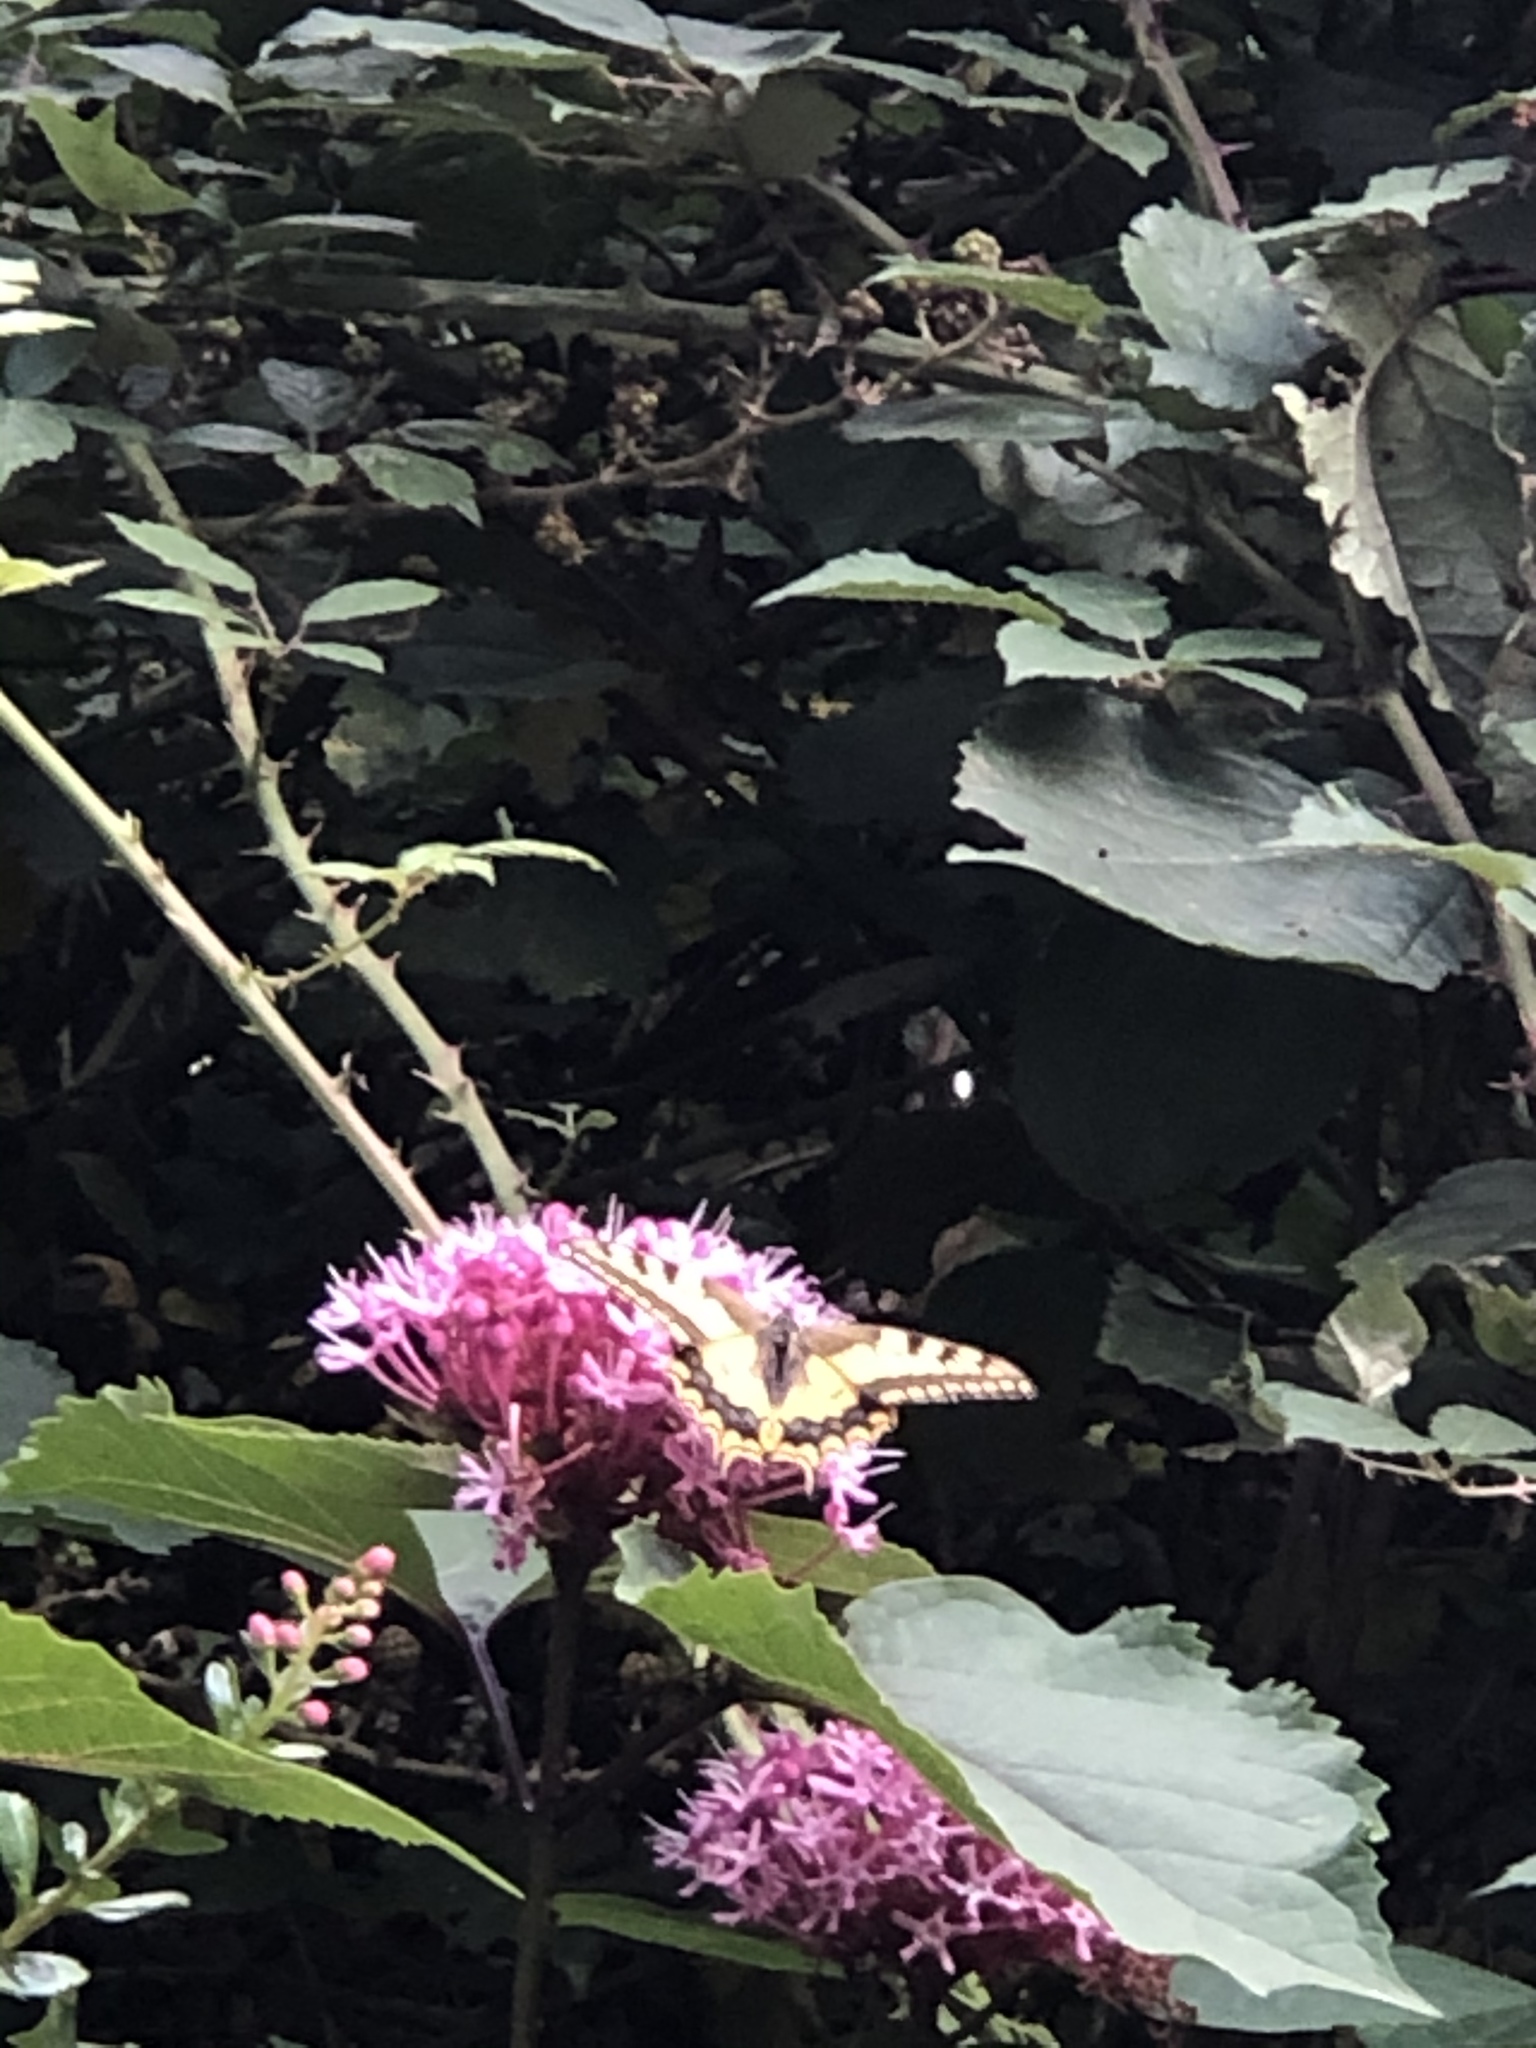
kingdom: Animalia
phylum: Arthropoda
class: Insecta
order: Lepidoptera
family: Papilionidae
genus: Papilio
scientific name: Papilio machaon
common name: Swallowtail
